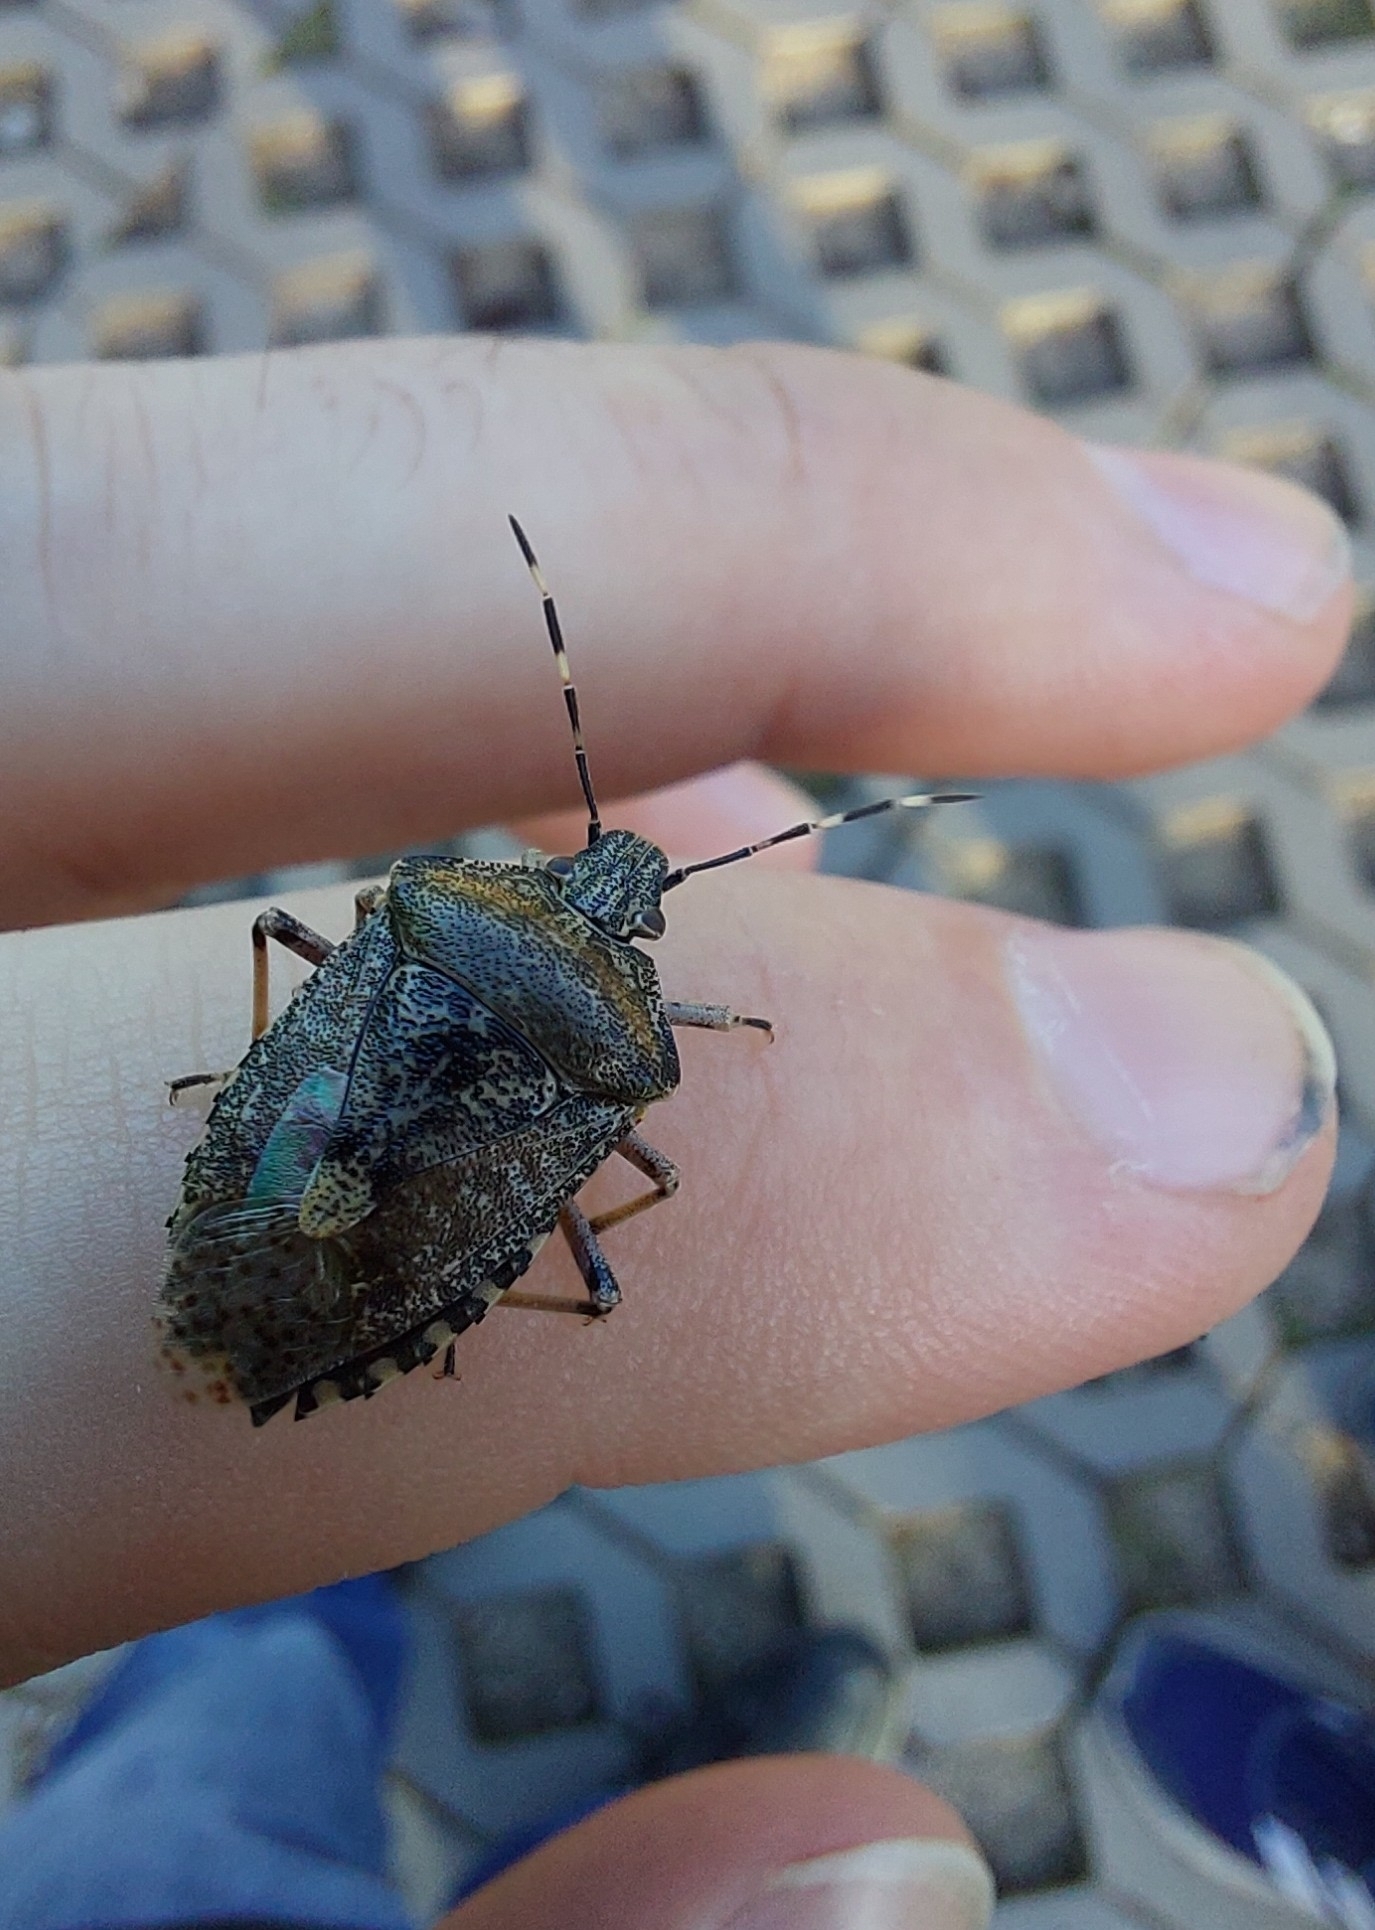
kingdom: Animalia
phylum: Arthropoda
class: Insecta
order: Hemiptera
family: Pentatomidae
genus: Rhaphigaster
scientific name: Rhaphigaster nebulosa
